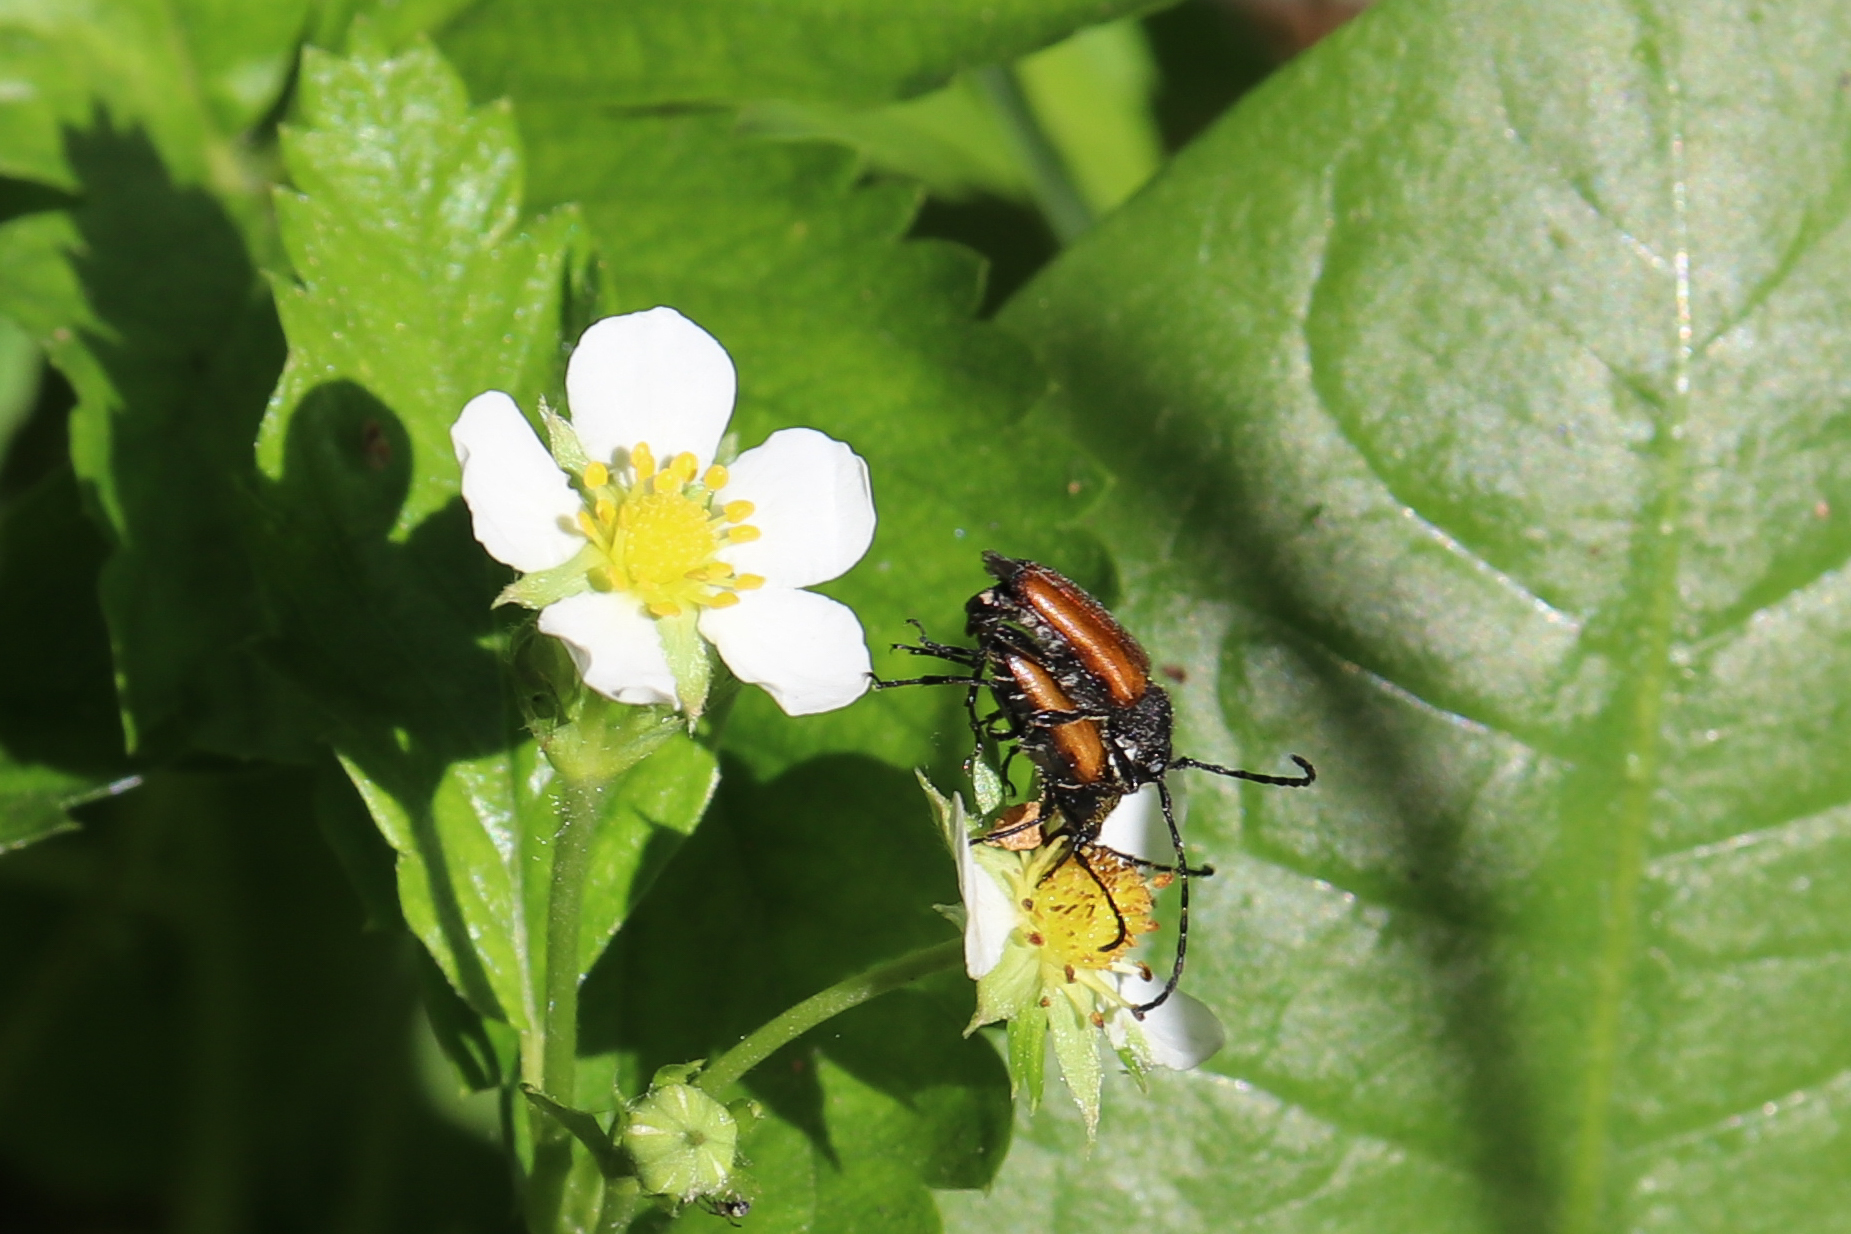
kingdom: Animalia
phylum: Arthropoda
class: Insecta
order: Coleoptera
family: Cerambycidae
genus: Paracorymbia
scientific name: Paracorymbia maculicornis
